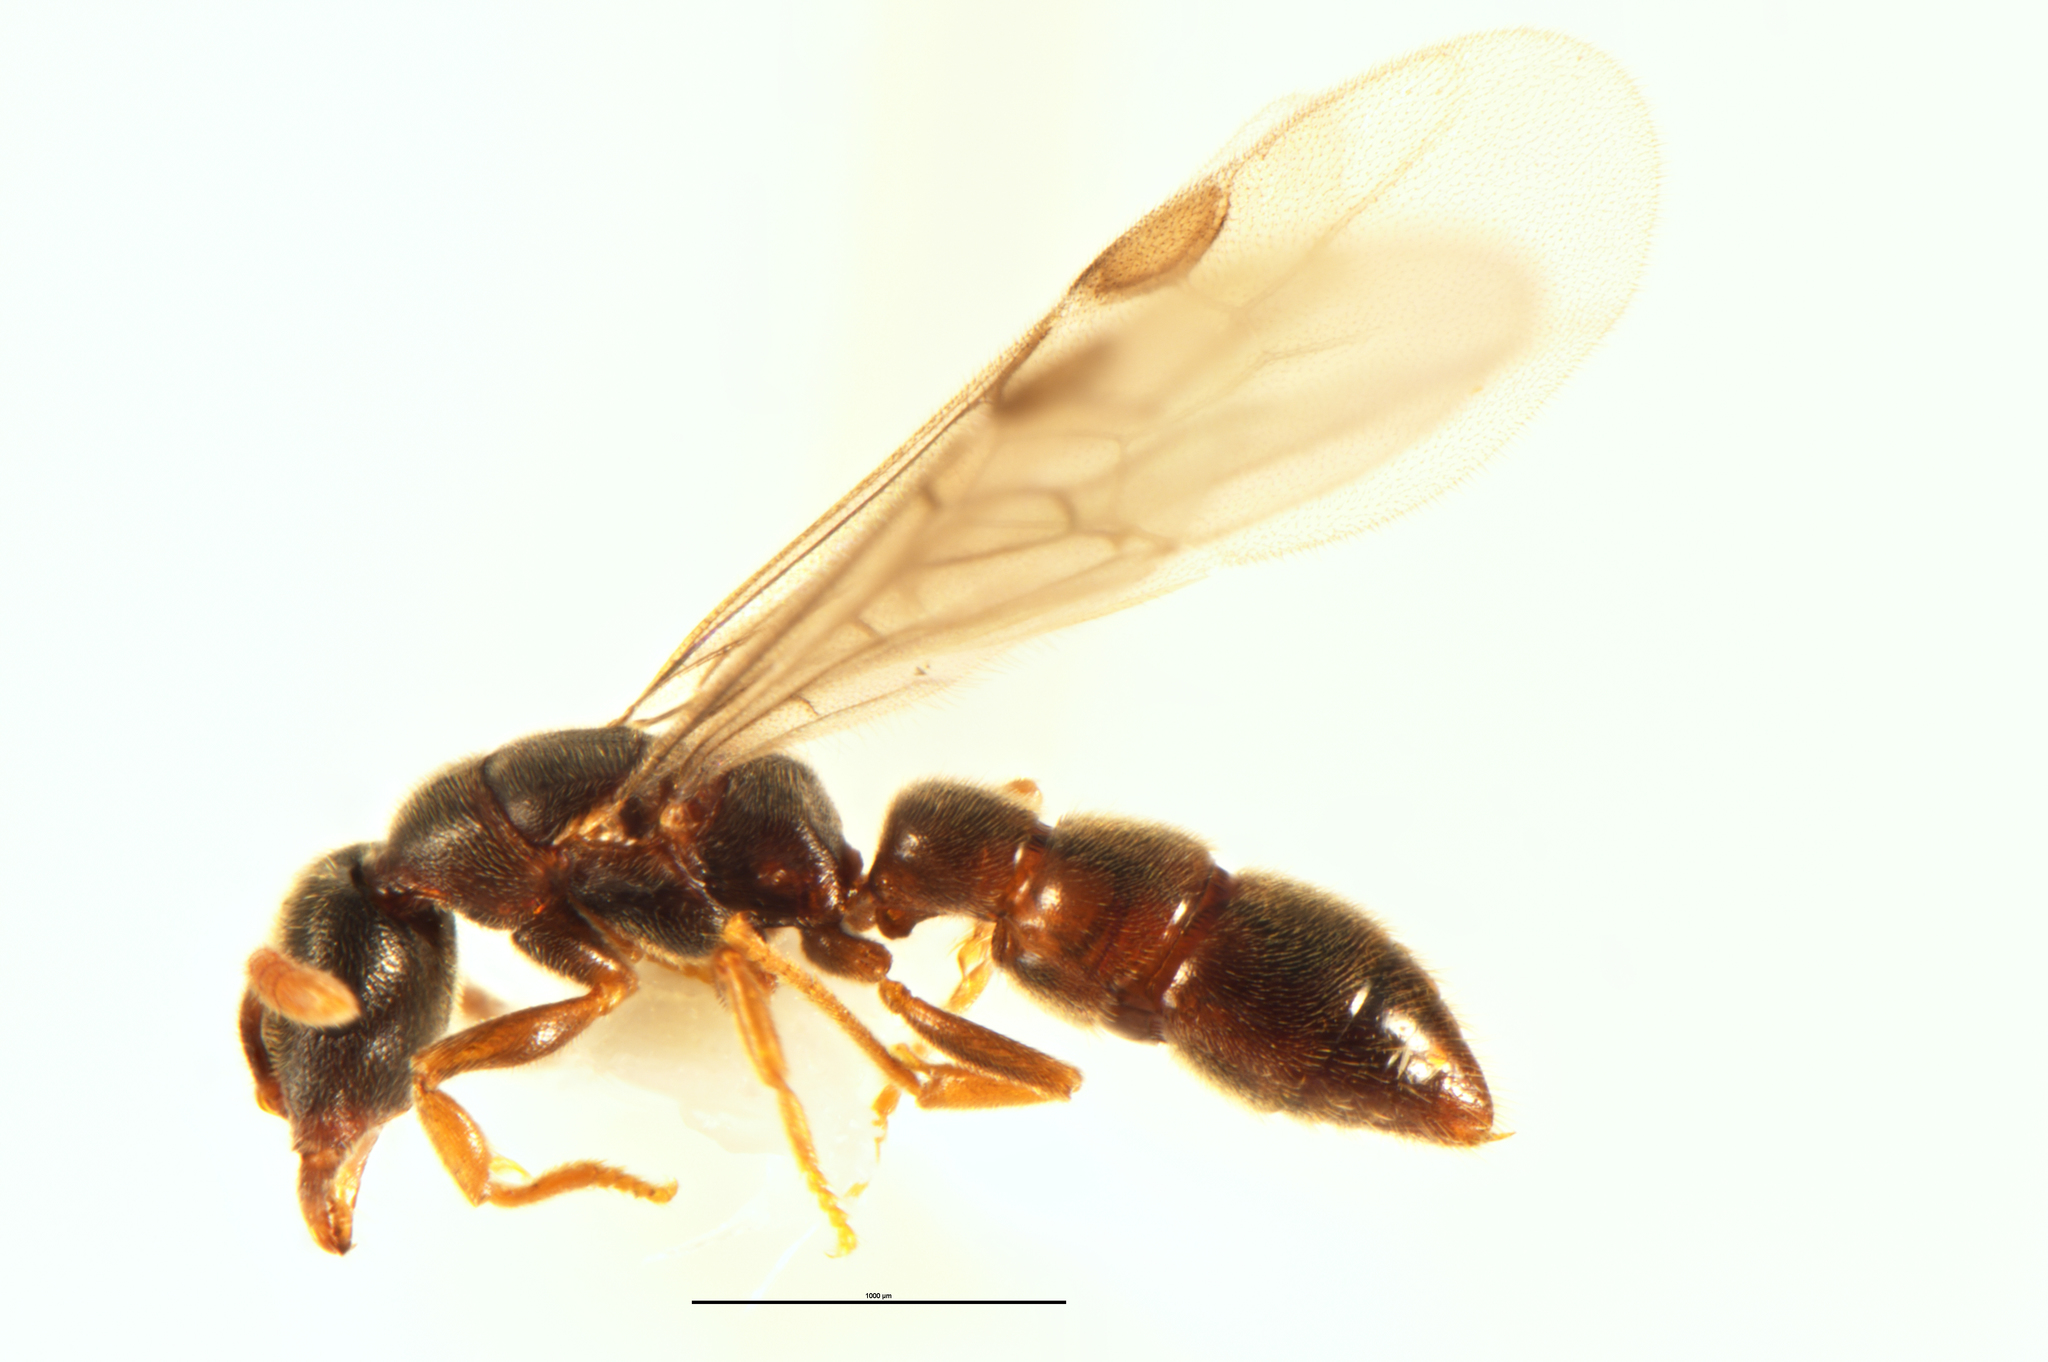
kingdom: Animalia
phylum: Arthropoda
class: Insecta
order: Hymenoptera
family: Formicidae
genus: Fulakora
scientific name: Fulakora
